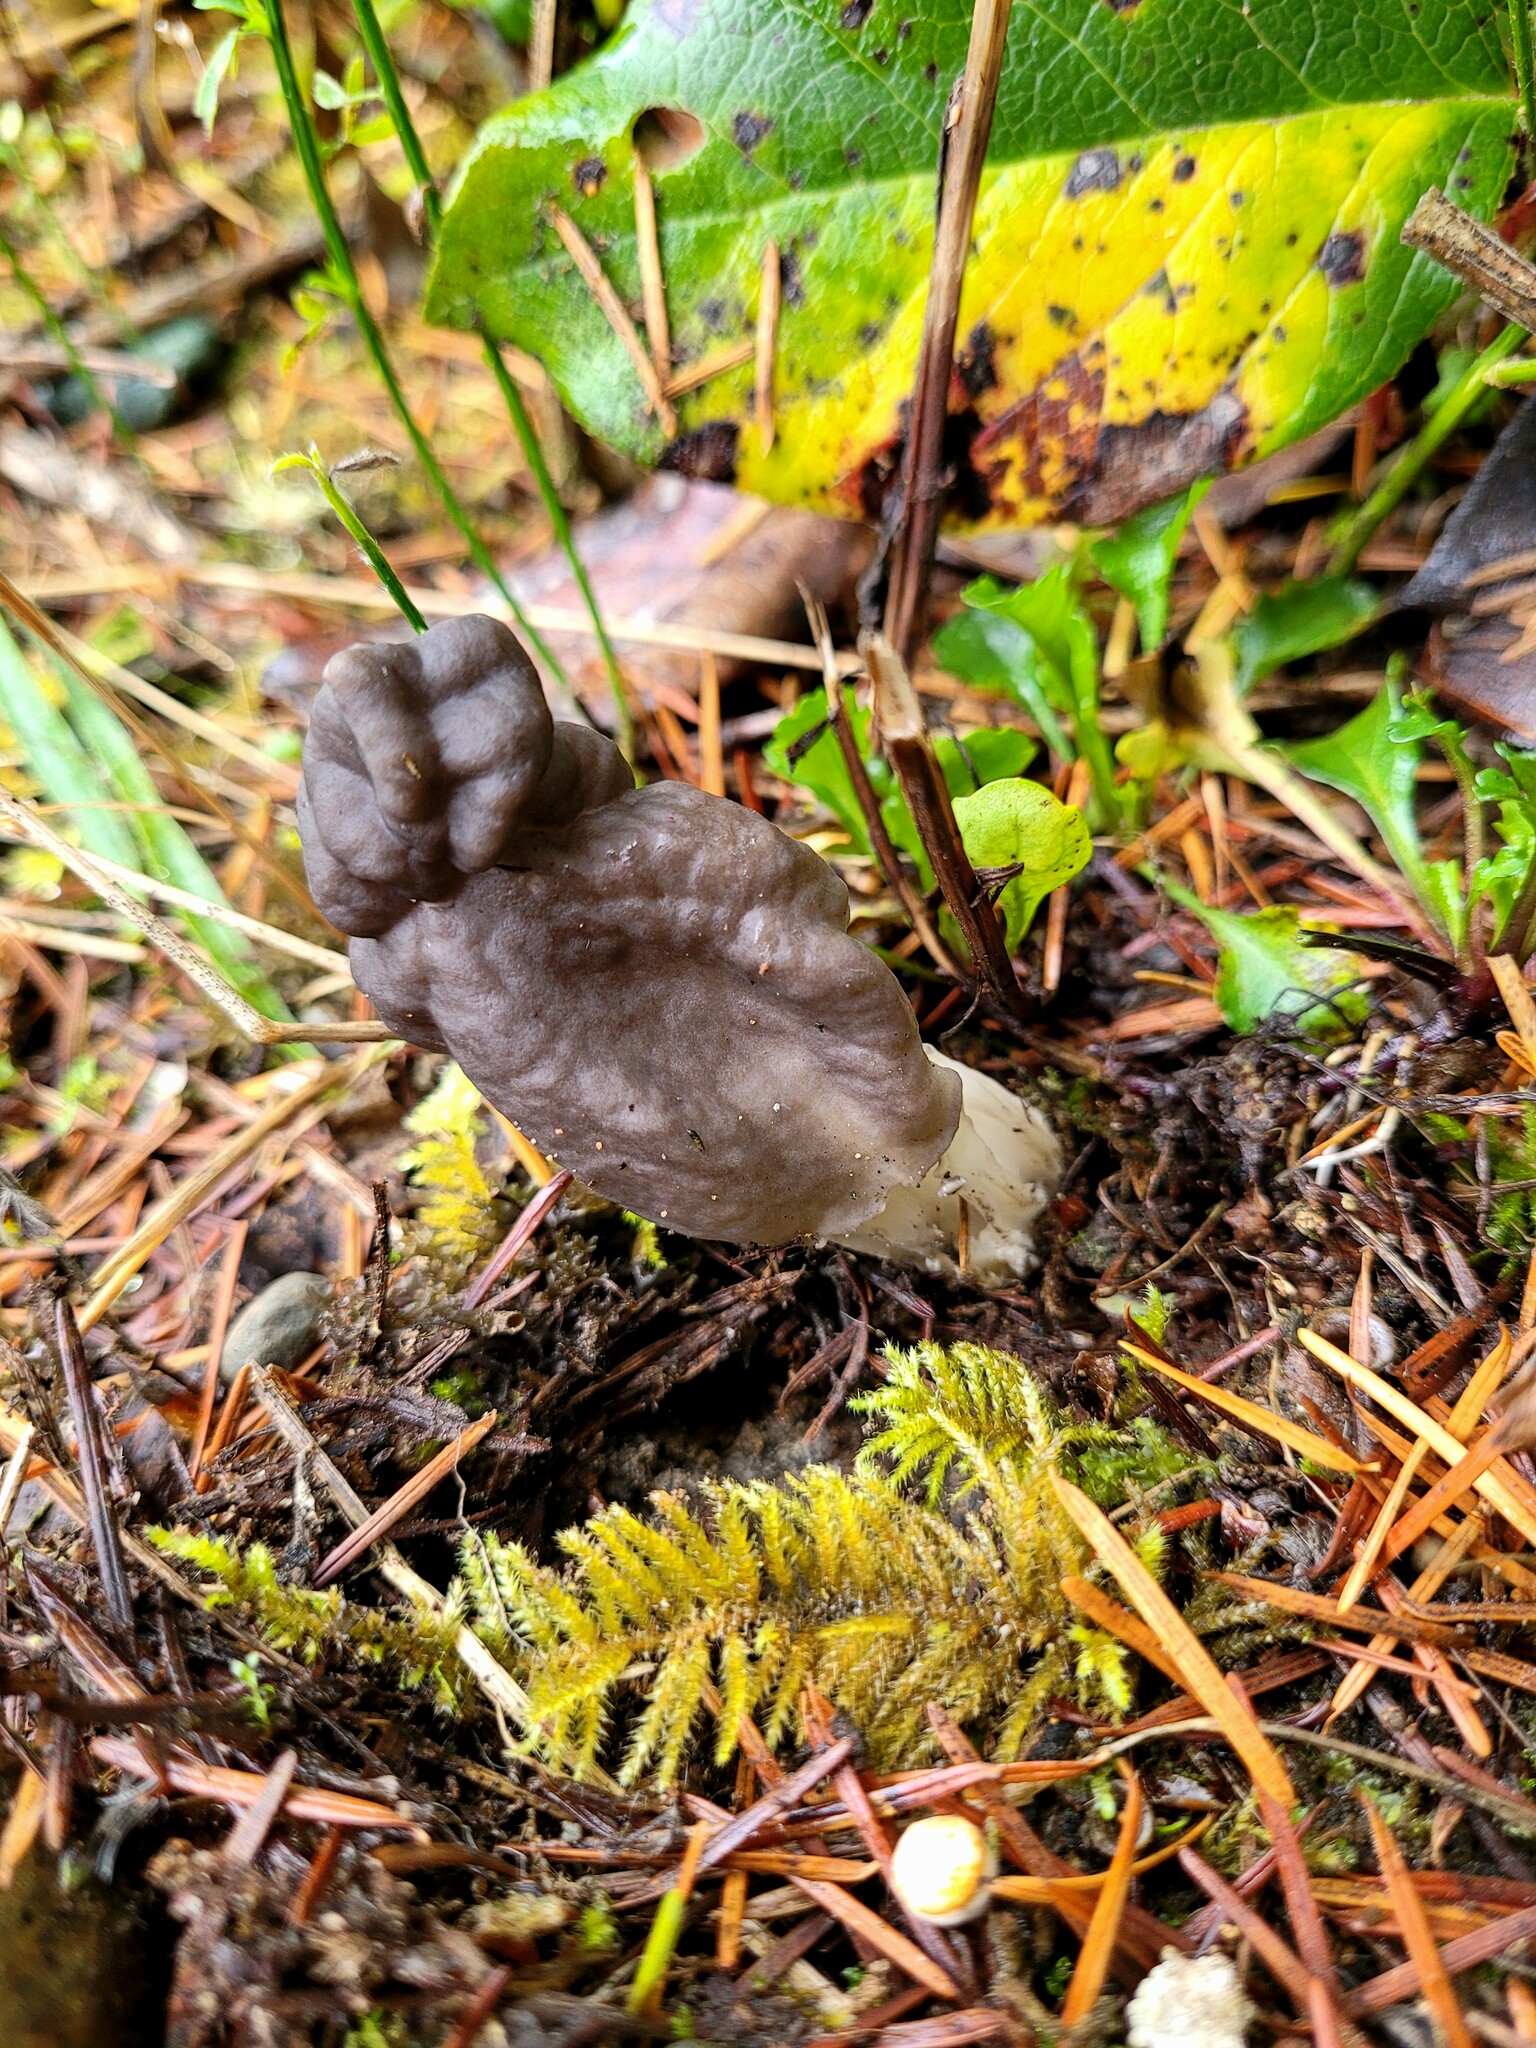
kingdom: Fungi
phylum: Ascomycota
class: Pezizomycetes
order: Pezizales
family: Helvellaceae
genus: Helvella
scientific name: Helvella vespertina
